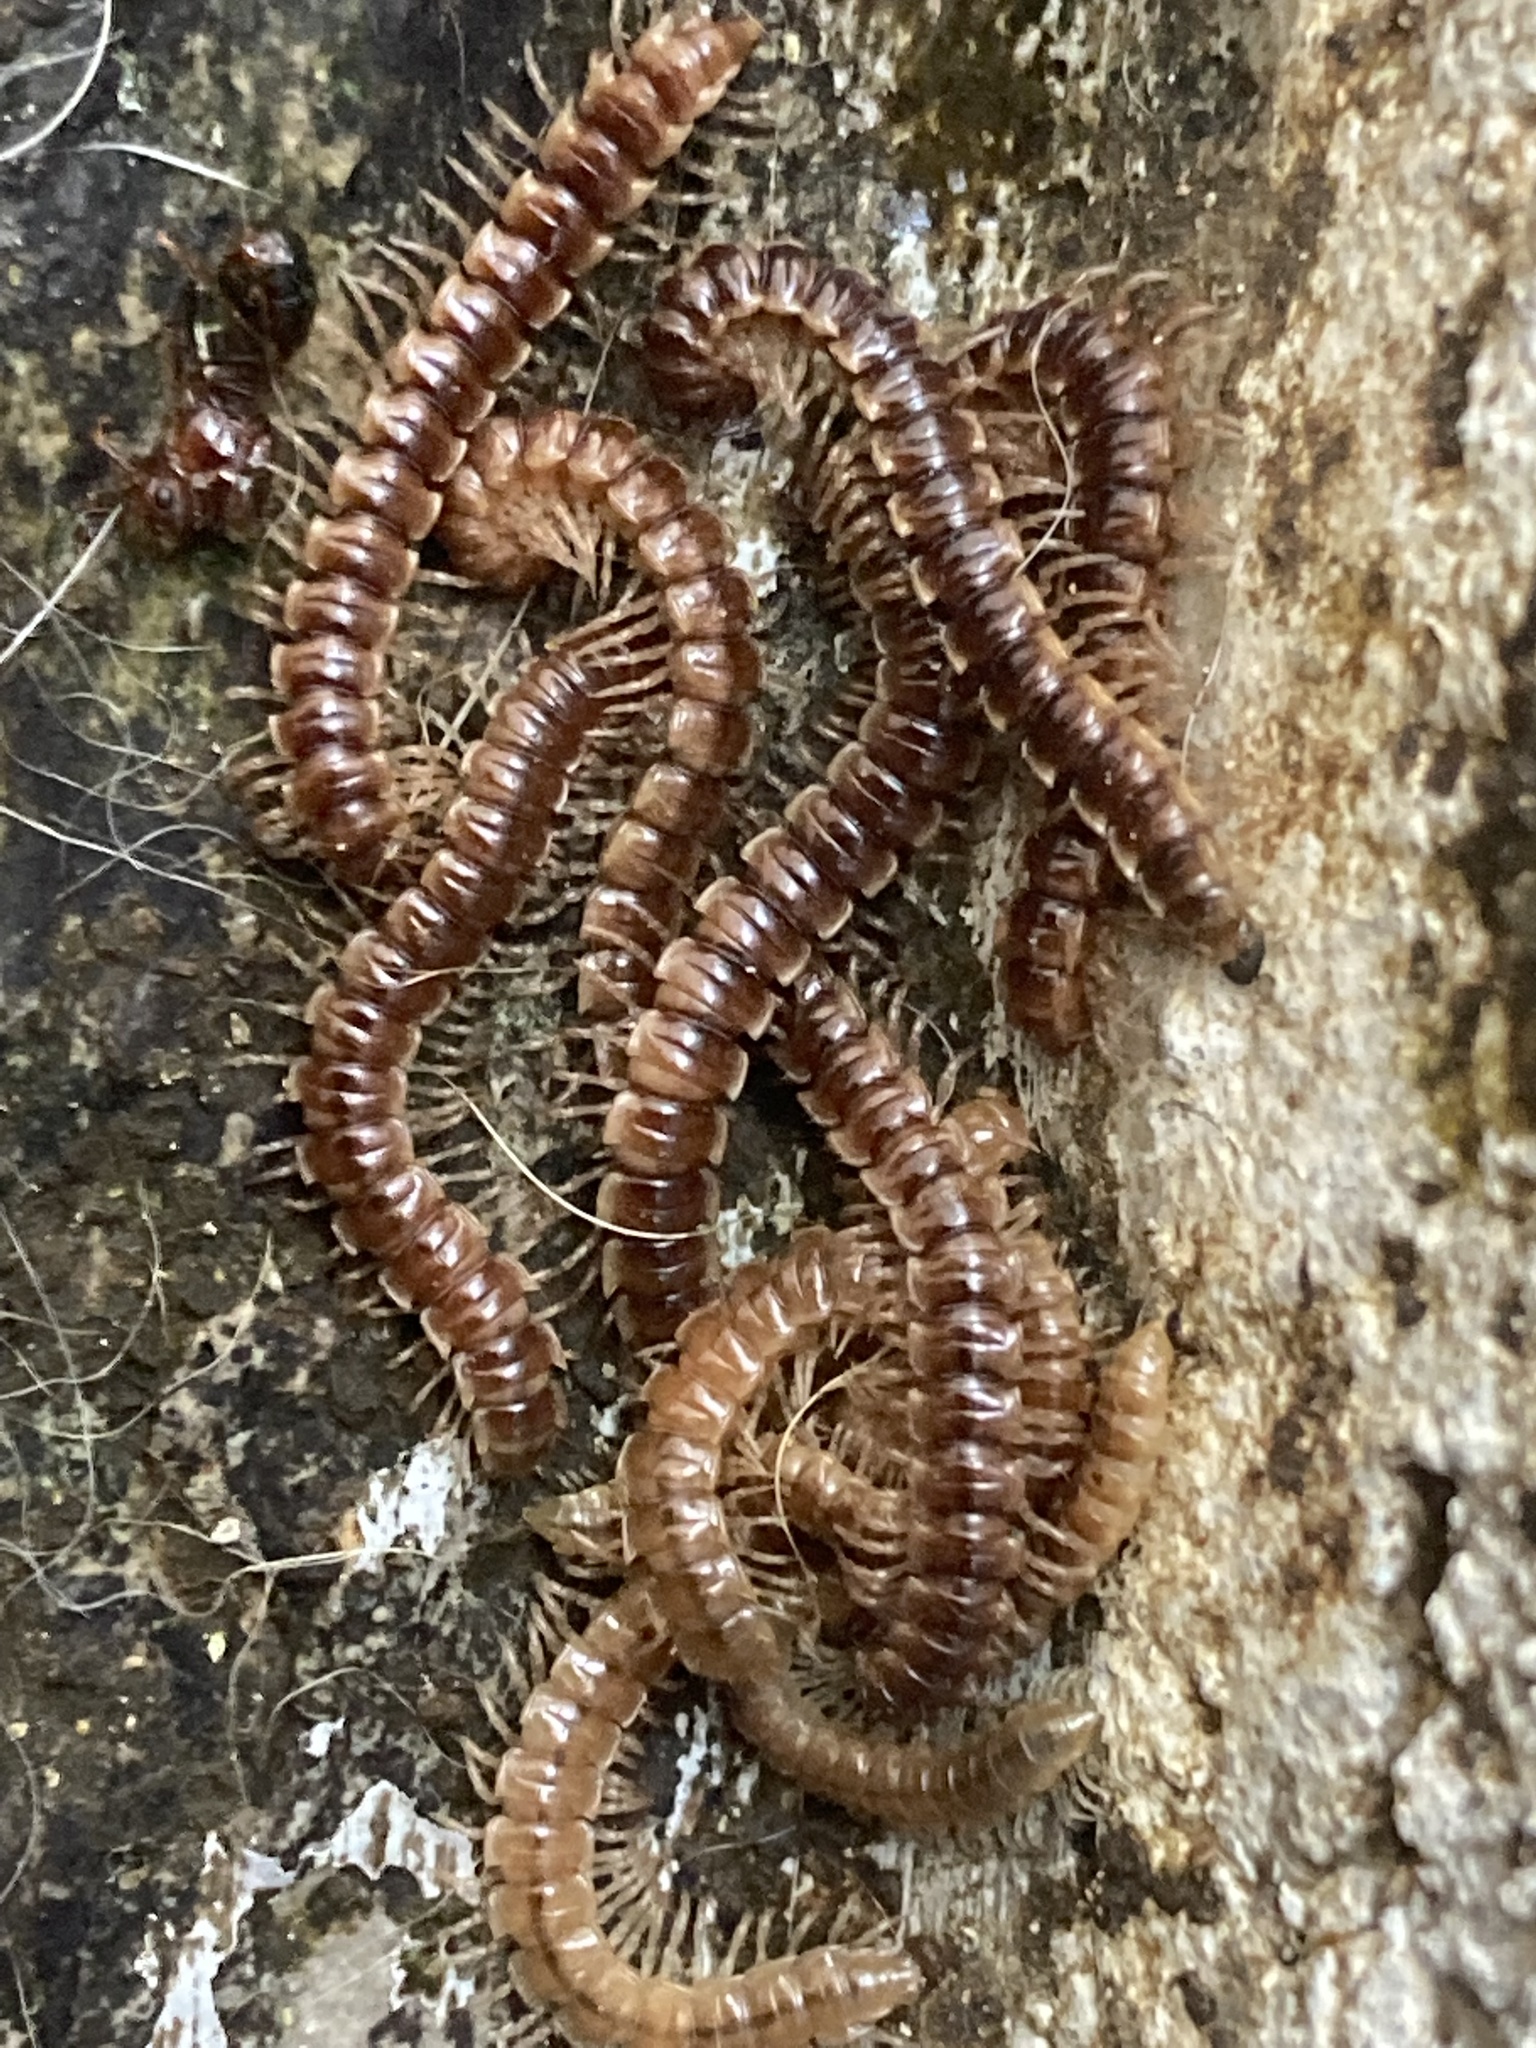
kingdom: Animalia
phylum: Arthropoda
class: Diplopoda
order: Polydesmida
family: Paradoxosomatidae
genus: Oxidus
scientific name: Oxidus gracilis
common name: Greenhouse millipede
